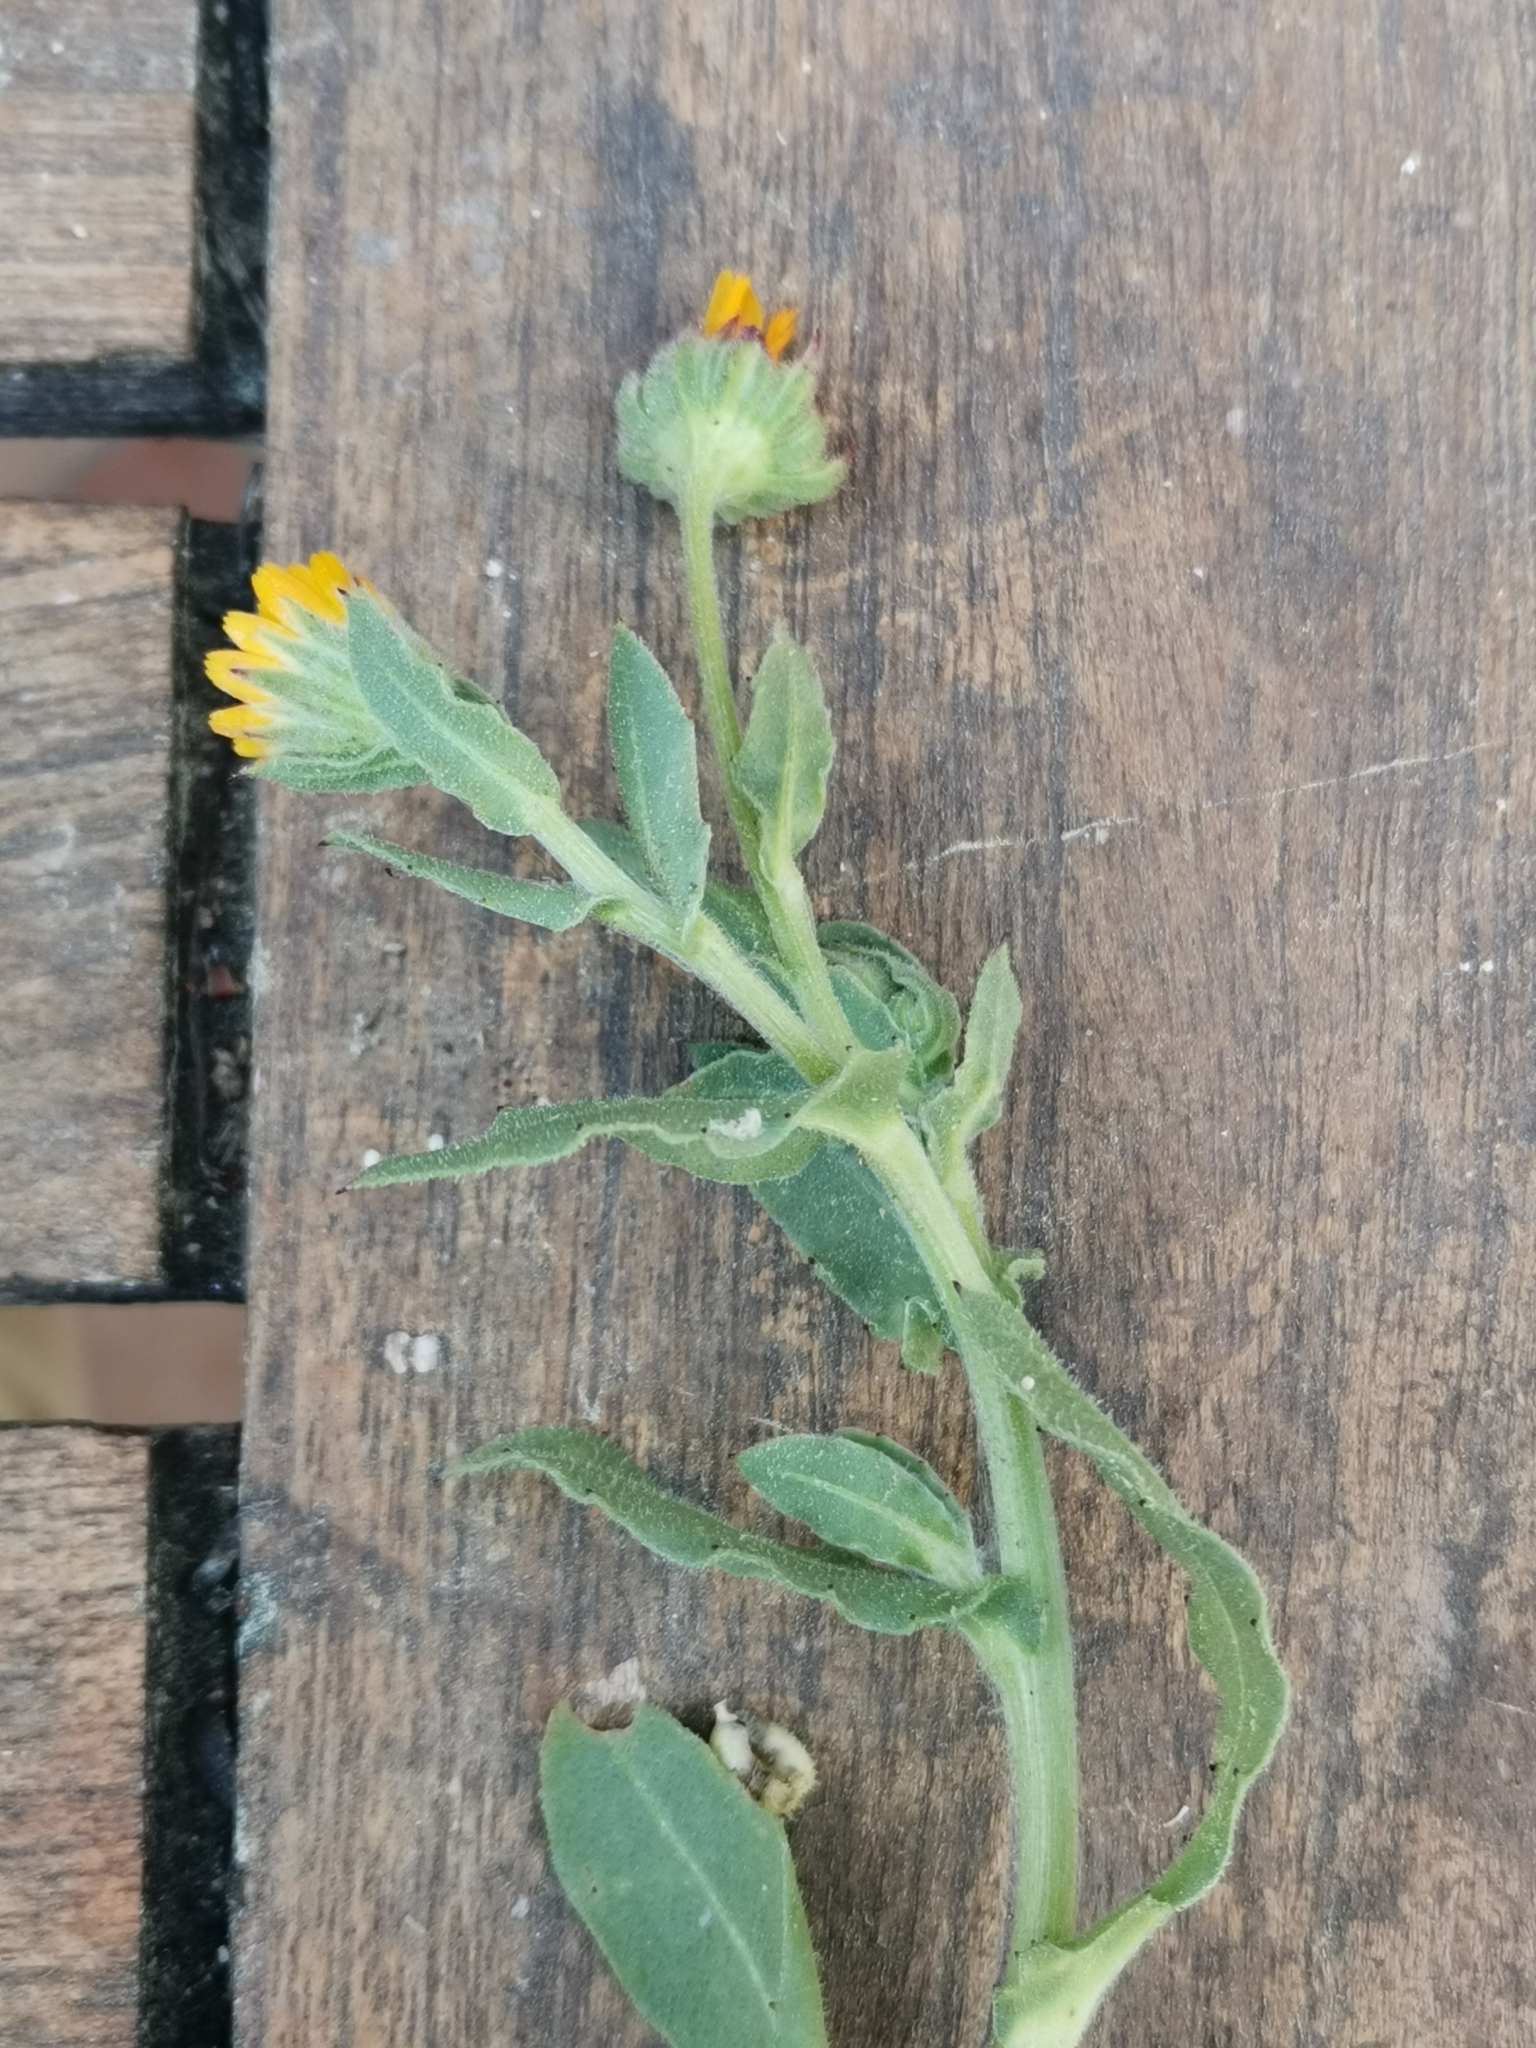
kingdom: Plantae
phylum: Tracheophyta
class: Magnoliopsida
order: Asterales
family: Asteraceae
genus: Calendula
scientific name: Calendula arvensis
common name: Field marigold
